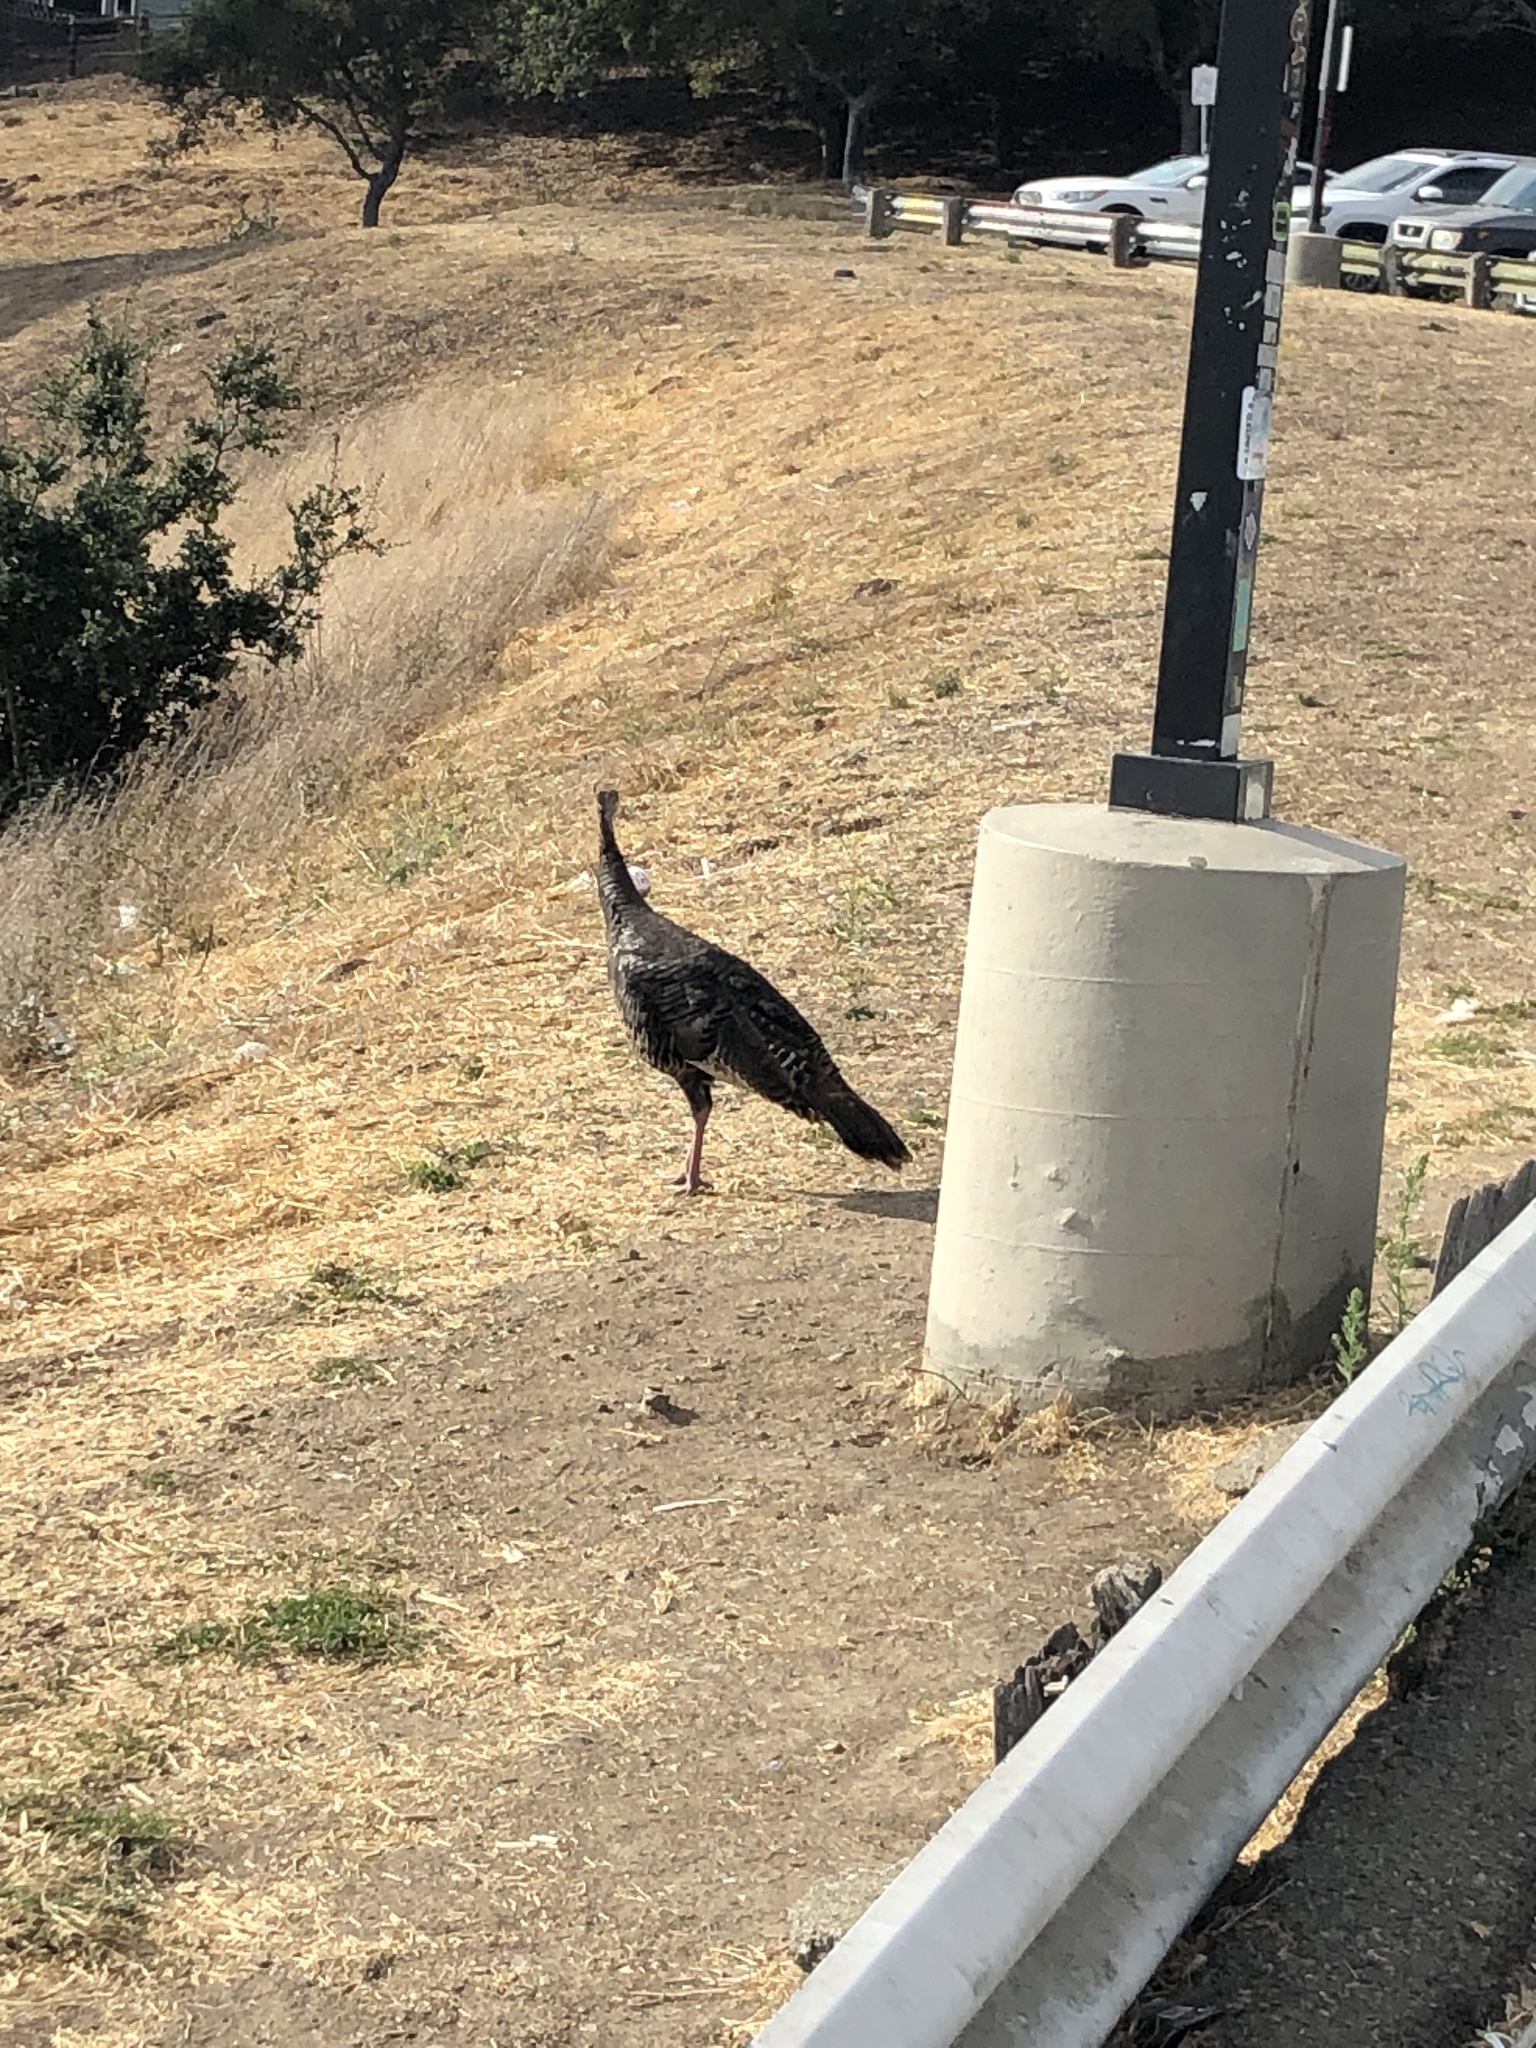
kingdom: Animalia
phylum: Chordata
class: Aves
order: Galliformes
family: Phasianidae
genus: Meleagris
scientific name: Meleagris gallopavo
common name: Wild turkey
